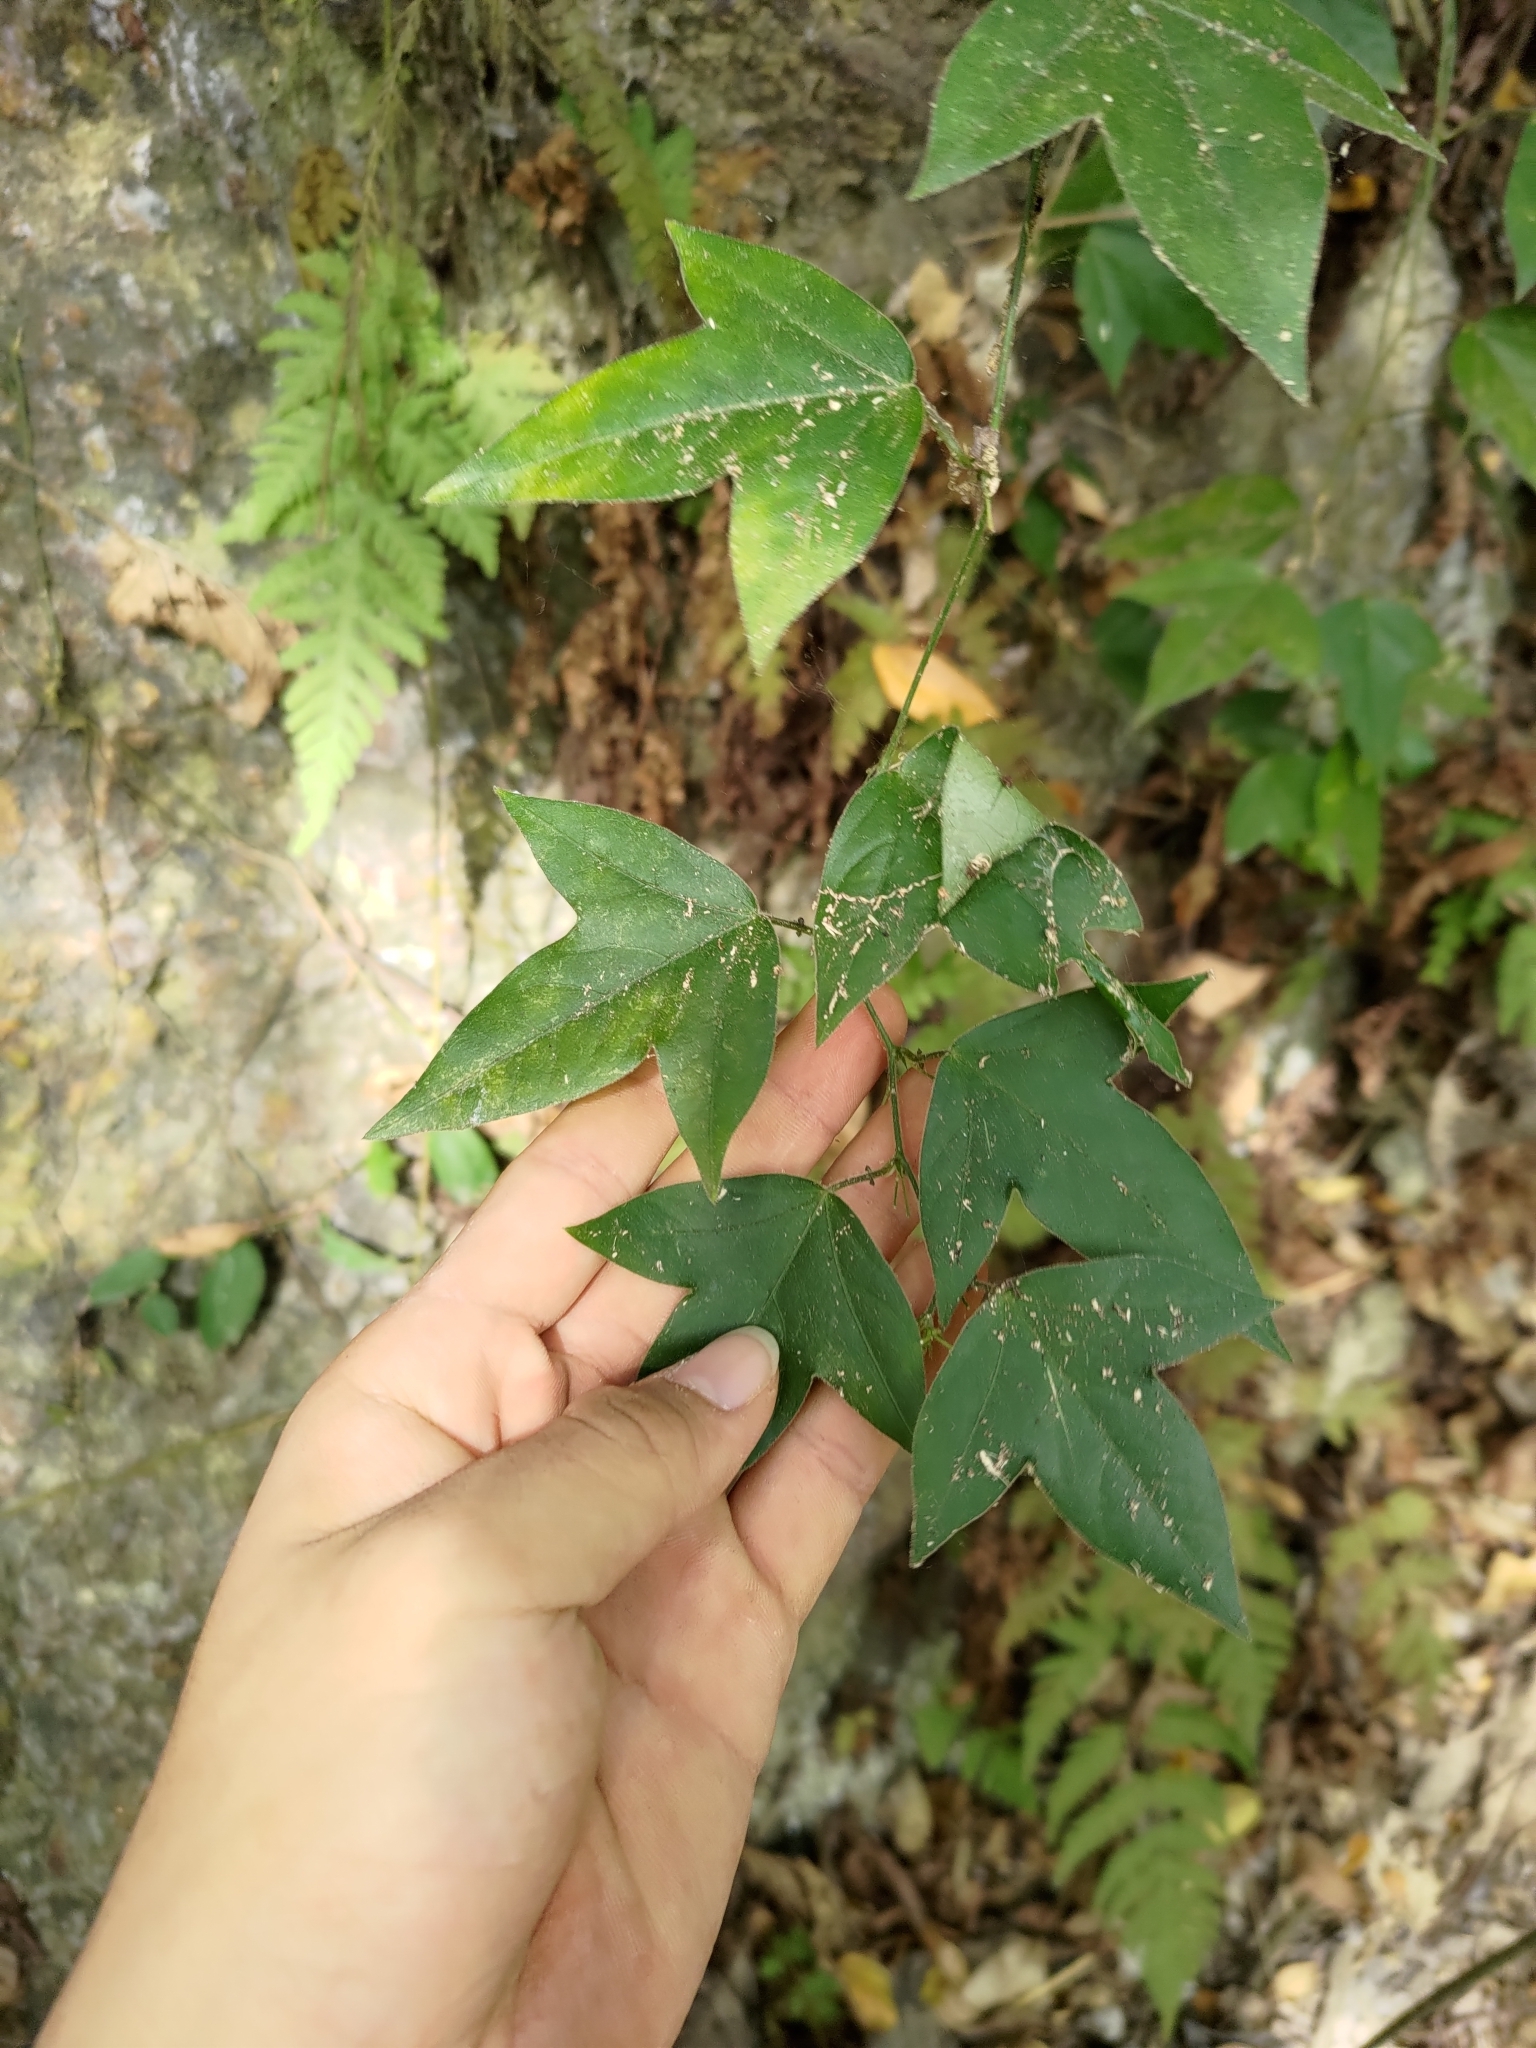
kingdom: Plantae
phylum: Tracheophyta
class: Magnoliopsida
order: Malpighiales
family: Passifloraceae
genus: Passiflora
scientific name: Passiflora suberosa
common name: Wild passionfruit
